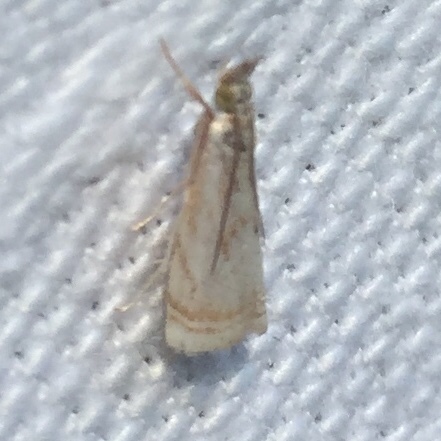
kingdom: Animalia
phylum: Arthropoda
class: Insecta
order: Lepidoptera
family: Crambidae
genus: Microcrambus
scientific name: Microcrambus elegans
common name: Elegant grass-veneer
